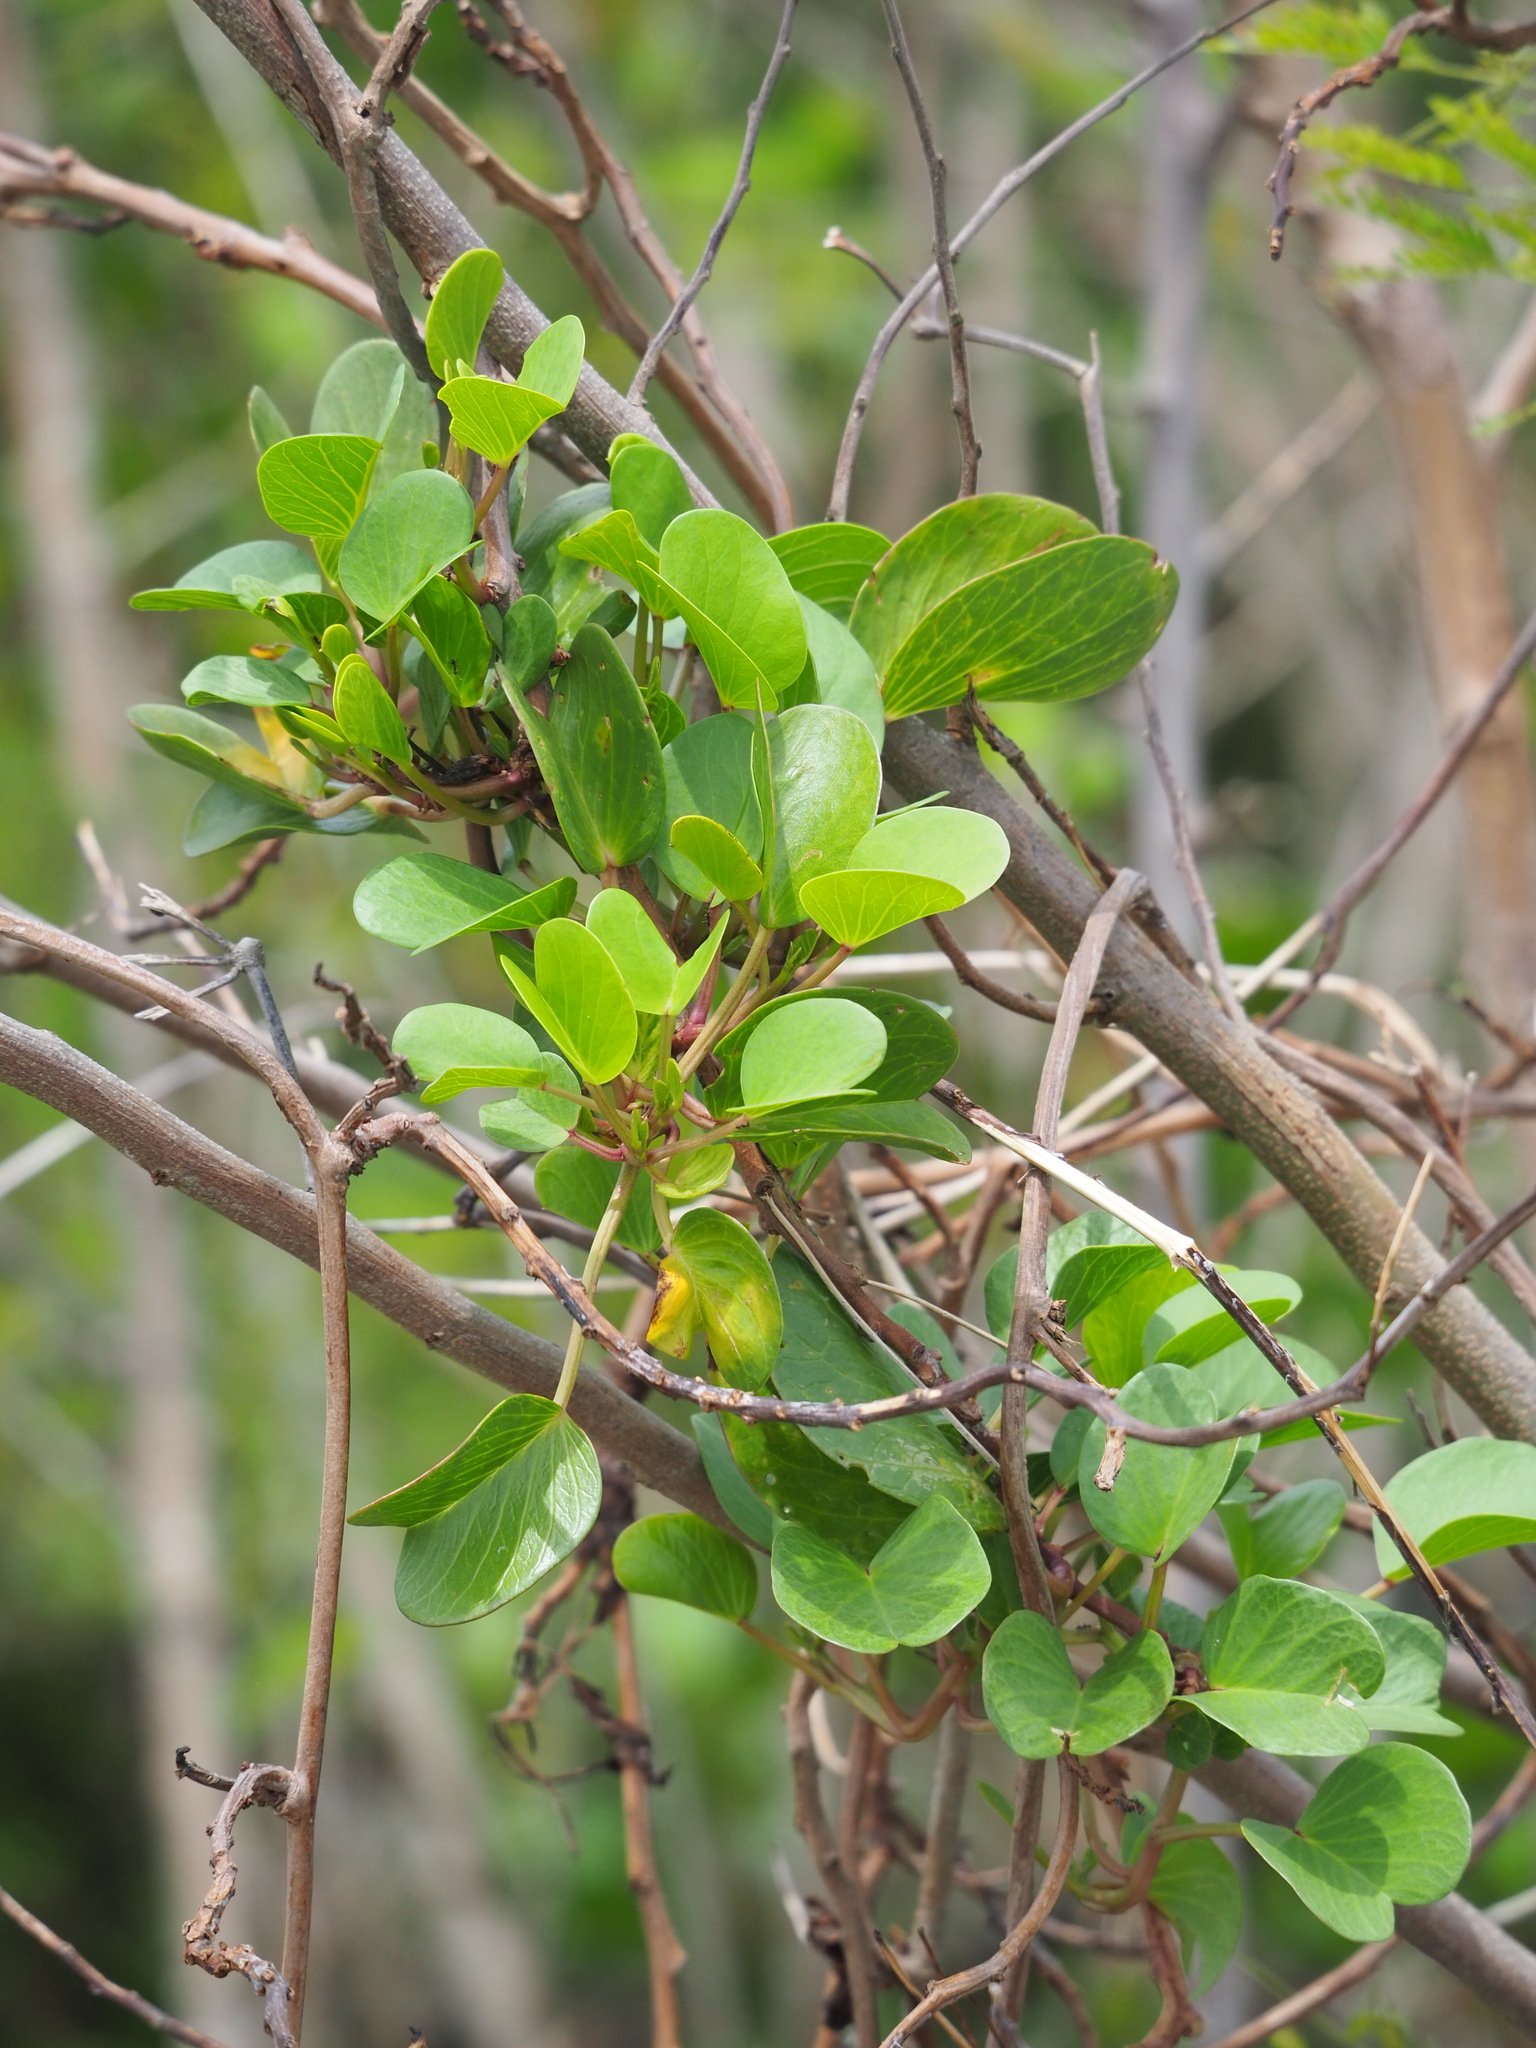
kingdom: Plantae
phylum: Tracheophyta
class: Magnoliopsida
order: Solanales
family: Convolvulaceae
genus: Ipomoea
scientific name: Ipomoea pes-caprae
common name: Beach morning glory
